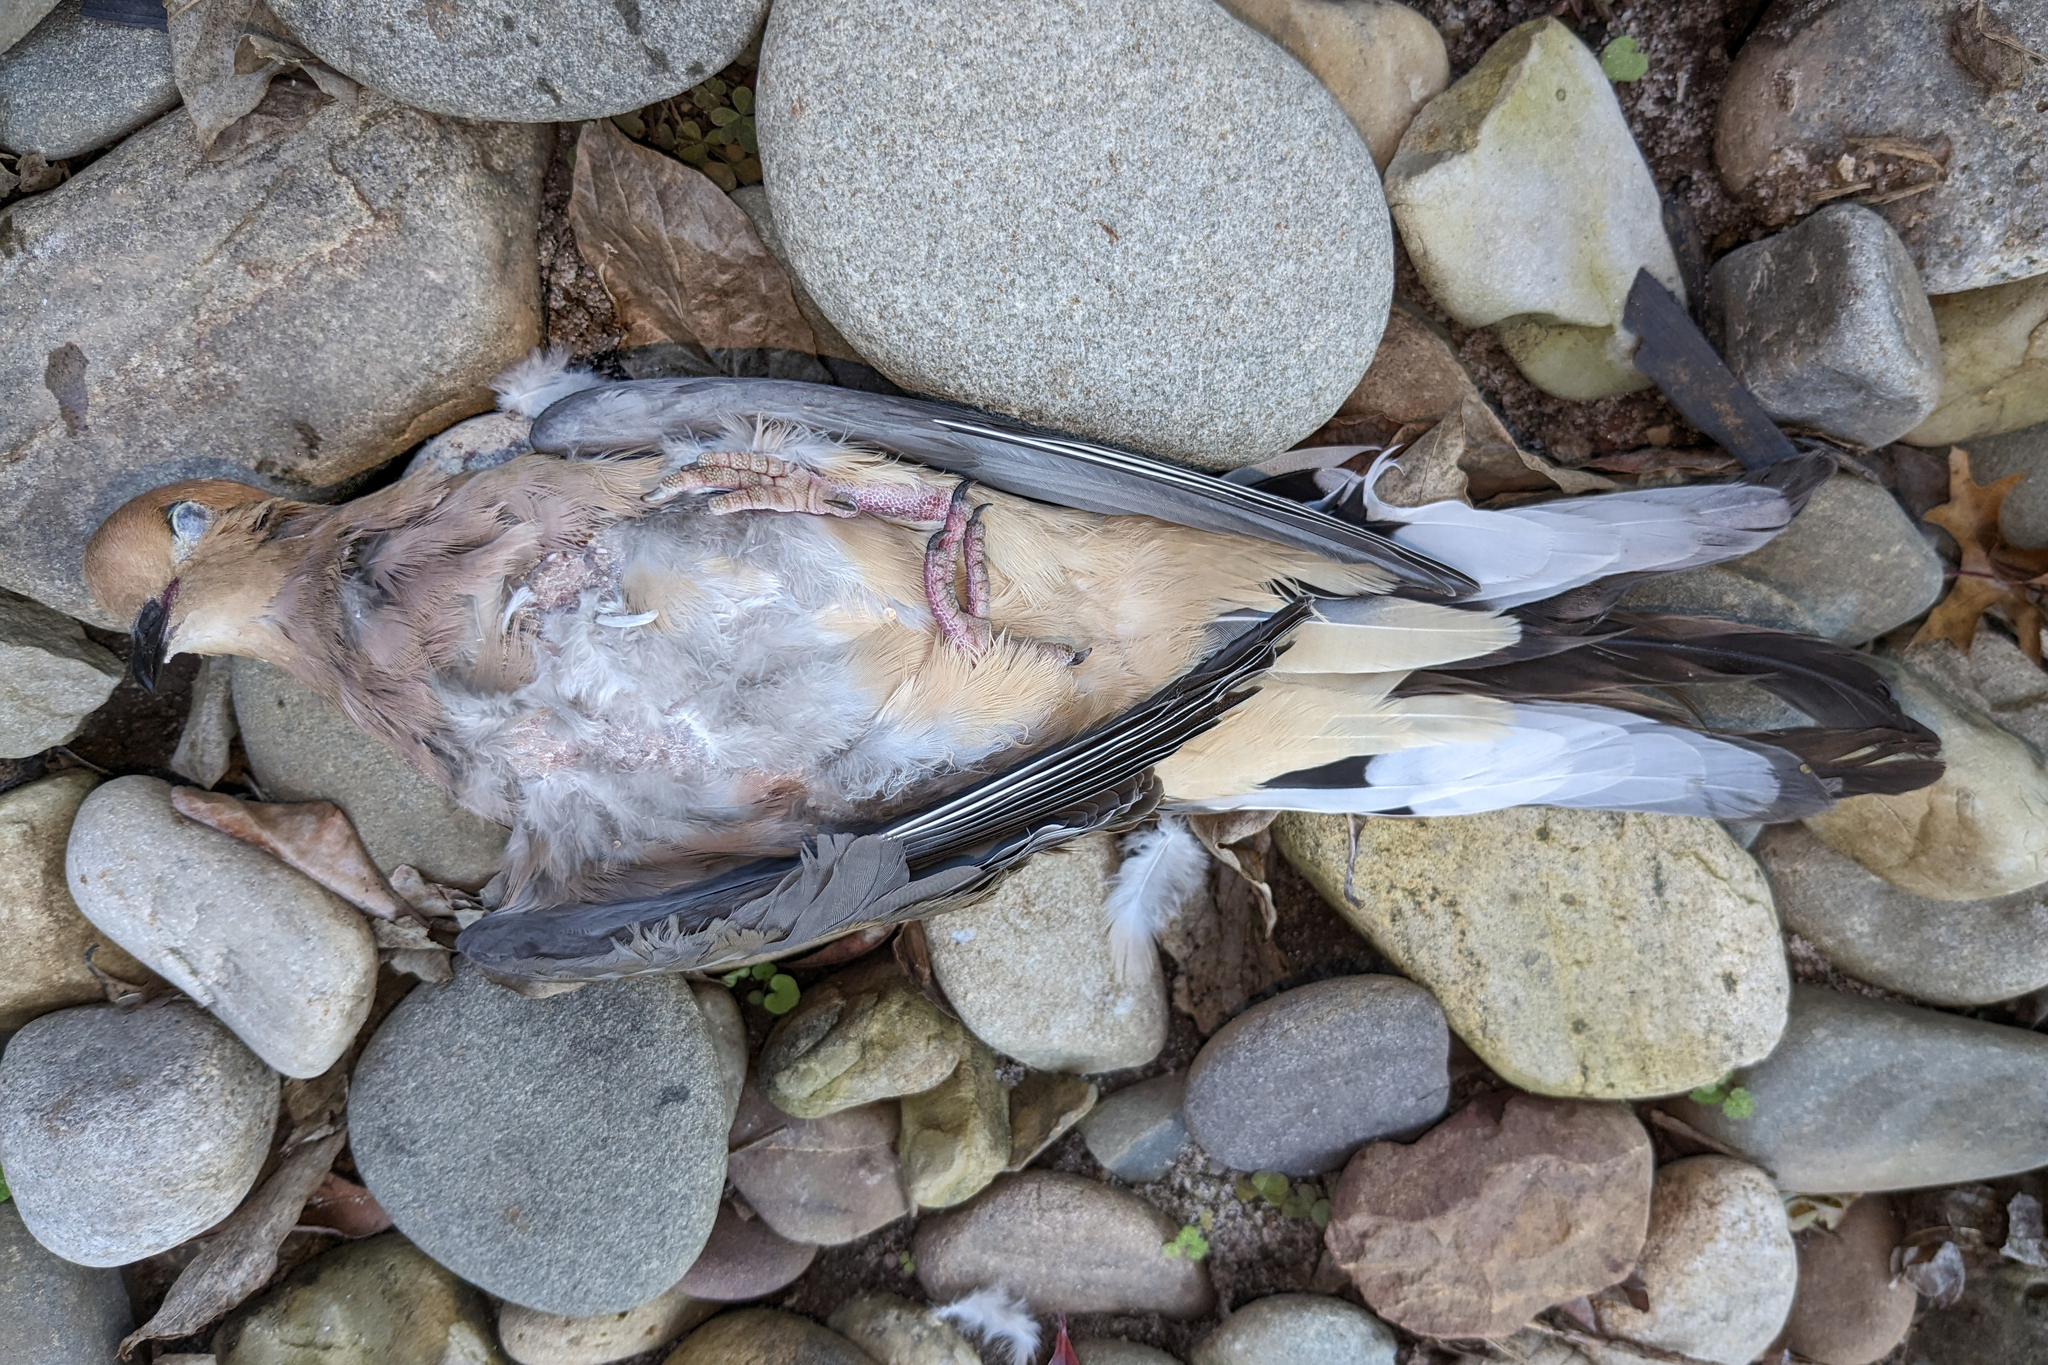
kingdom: Animalia
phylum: Chordata
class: Aves
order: Columbiformes
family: Columbidae
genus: Zenaida
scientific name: Zenaida macroura
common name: Mourning dove
